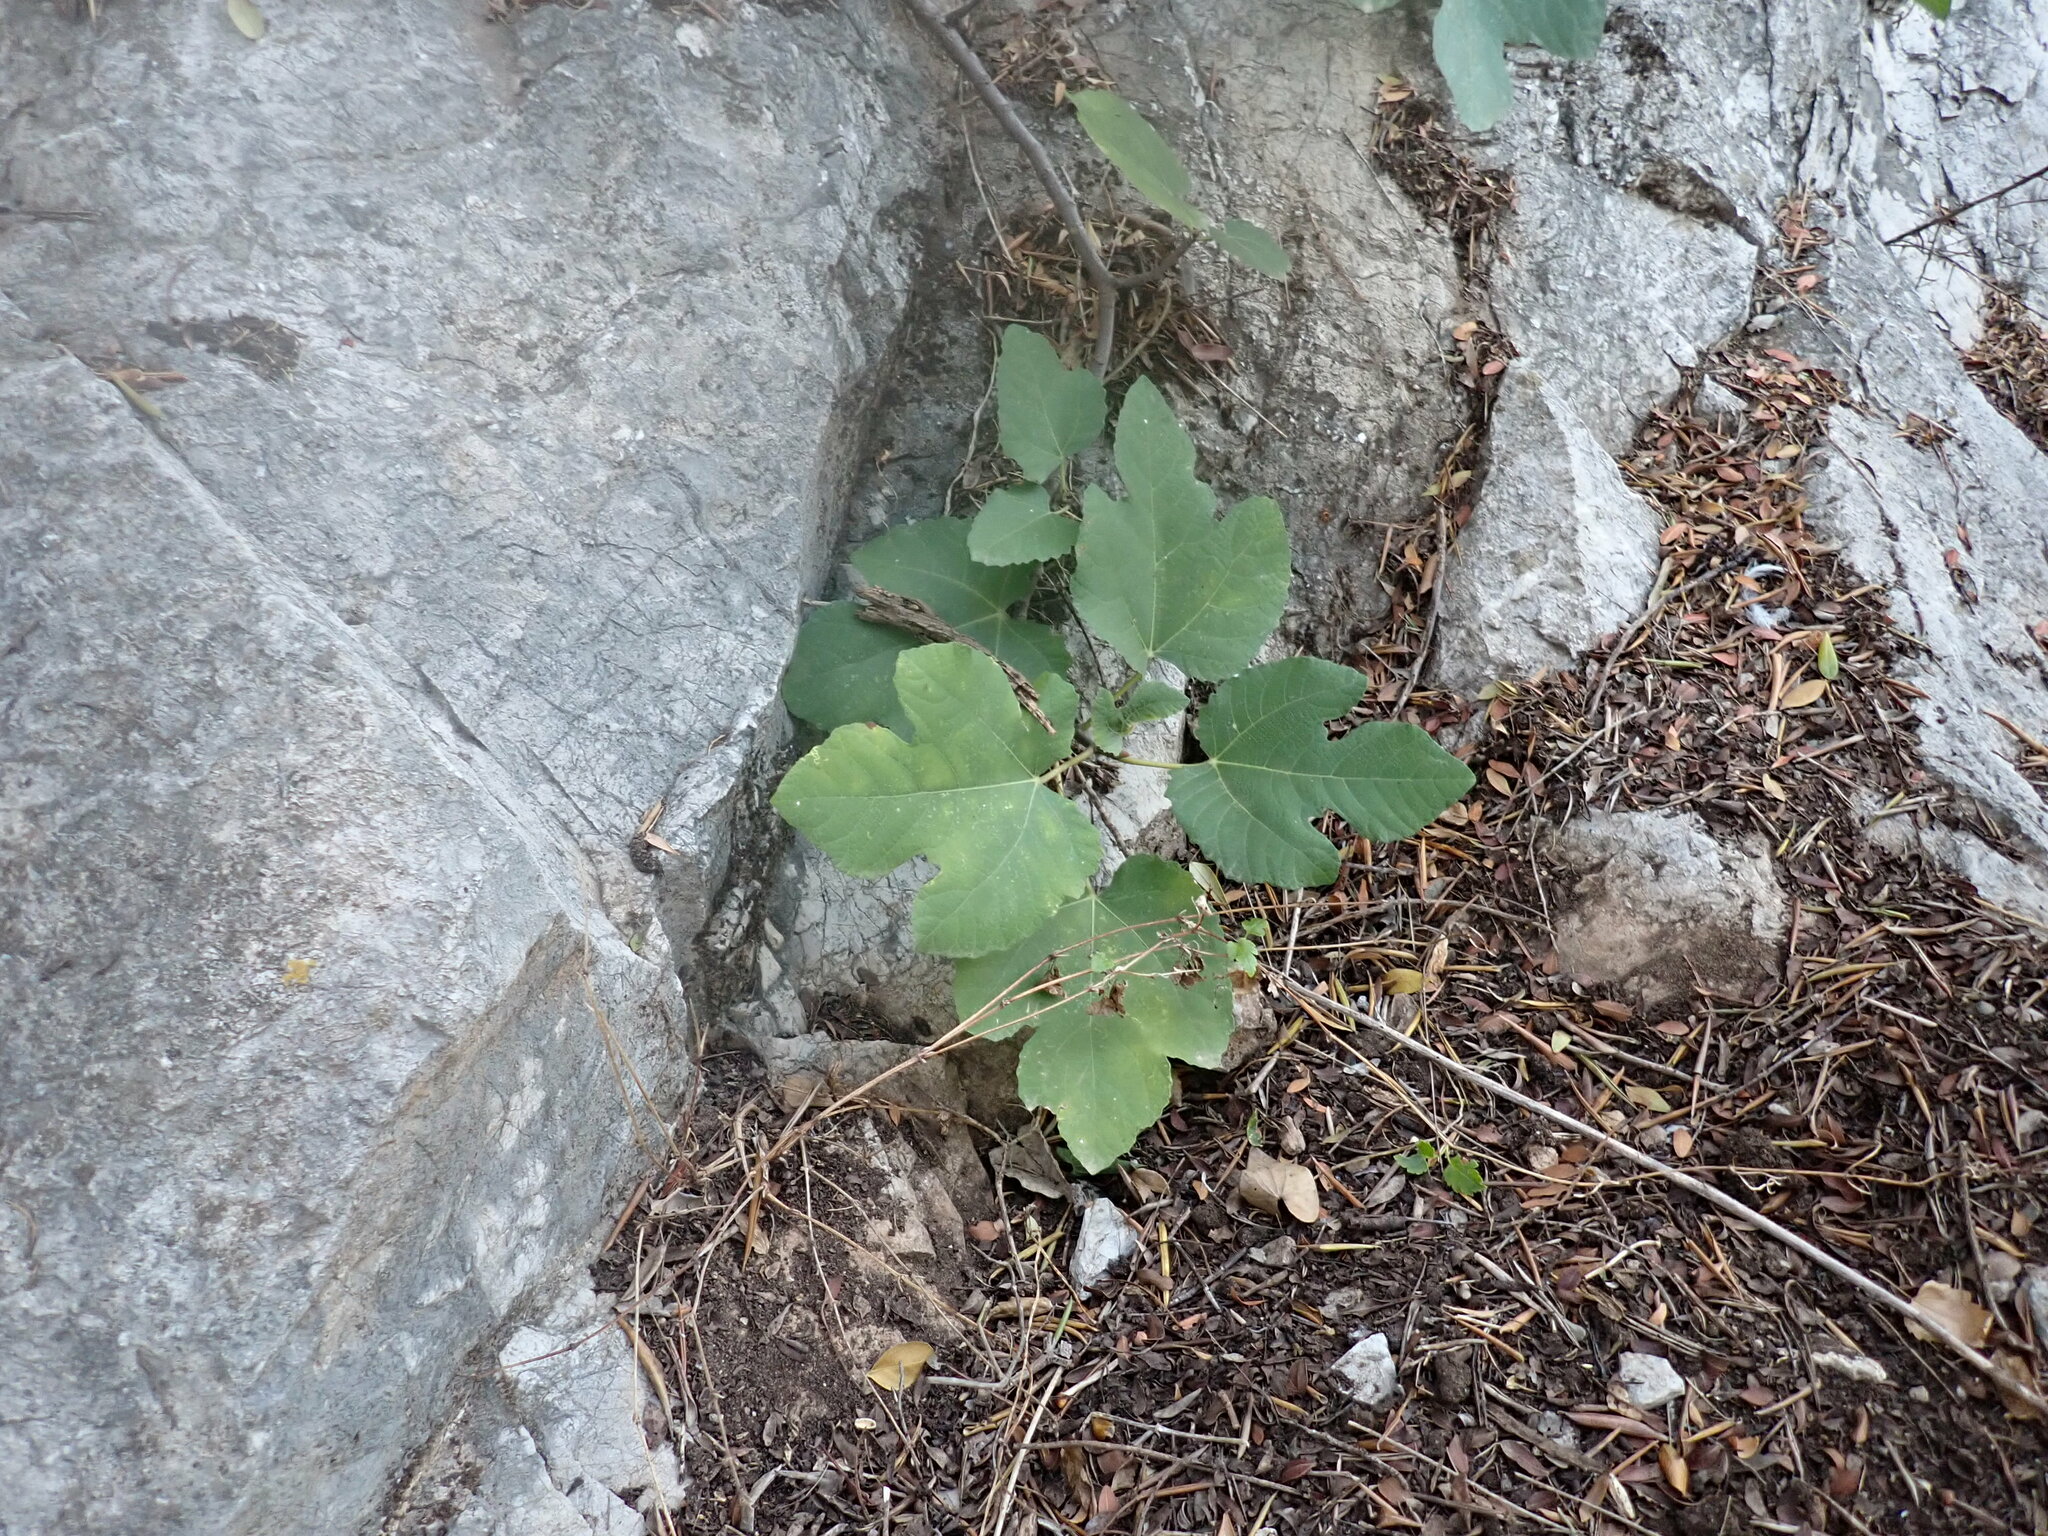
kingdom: Plantae
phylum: Tracheophyta
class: Magnoliopsida
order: Rosales
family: Moraceae
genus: Ficus
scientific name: Ficus carica
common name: Fig
